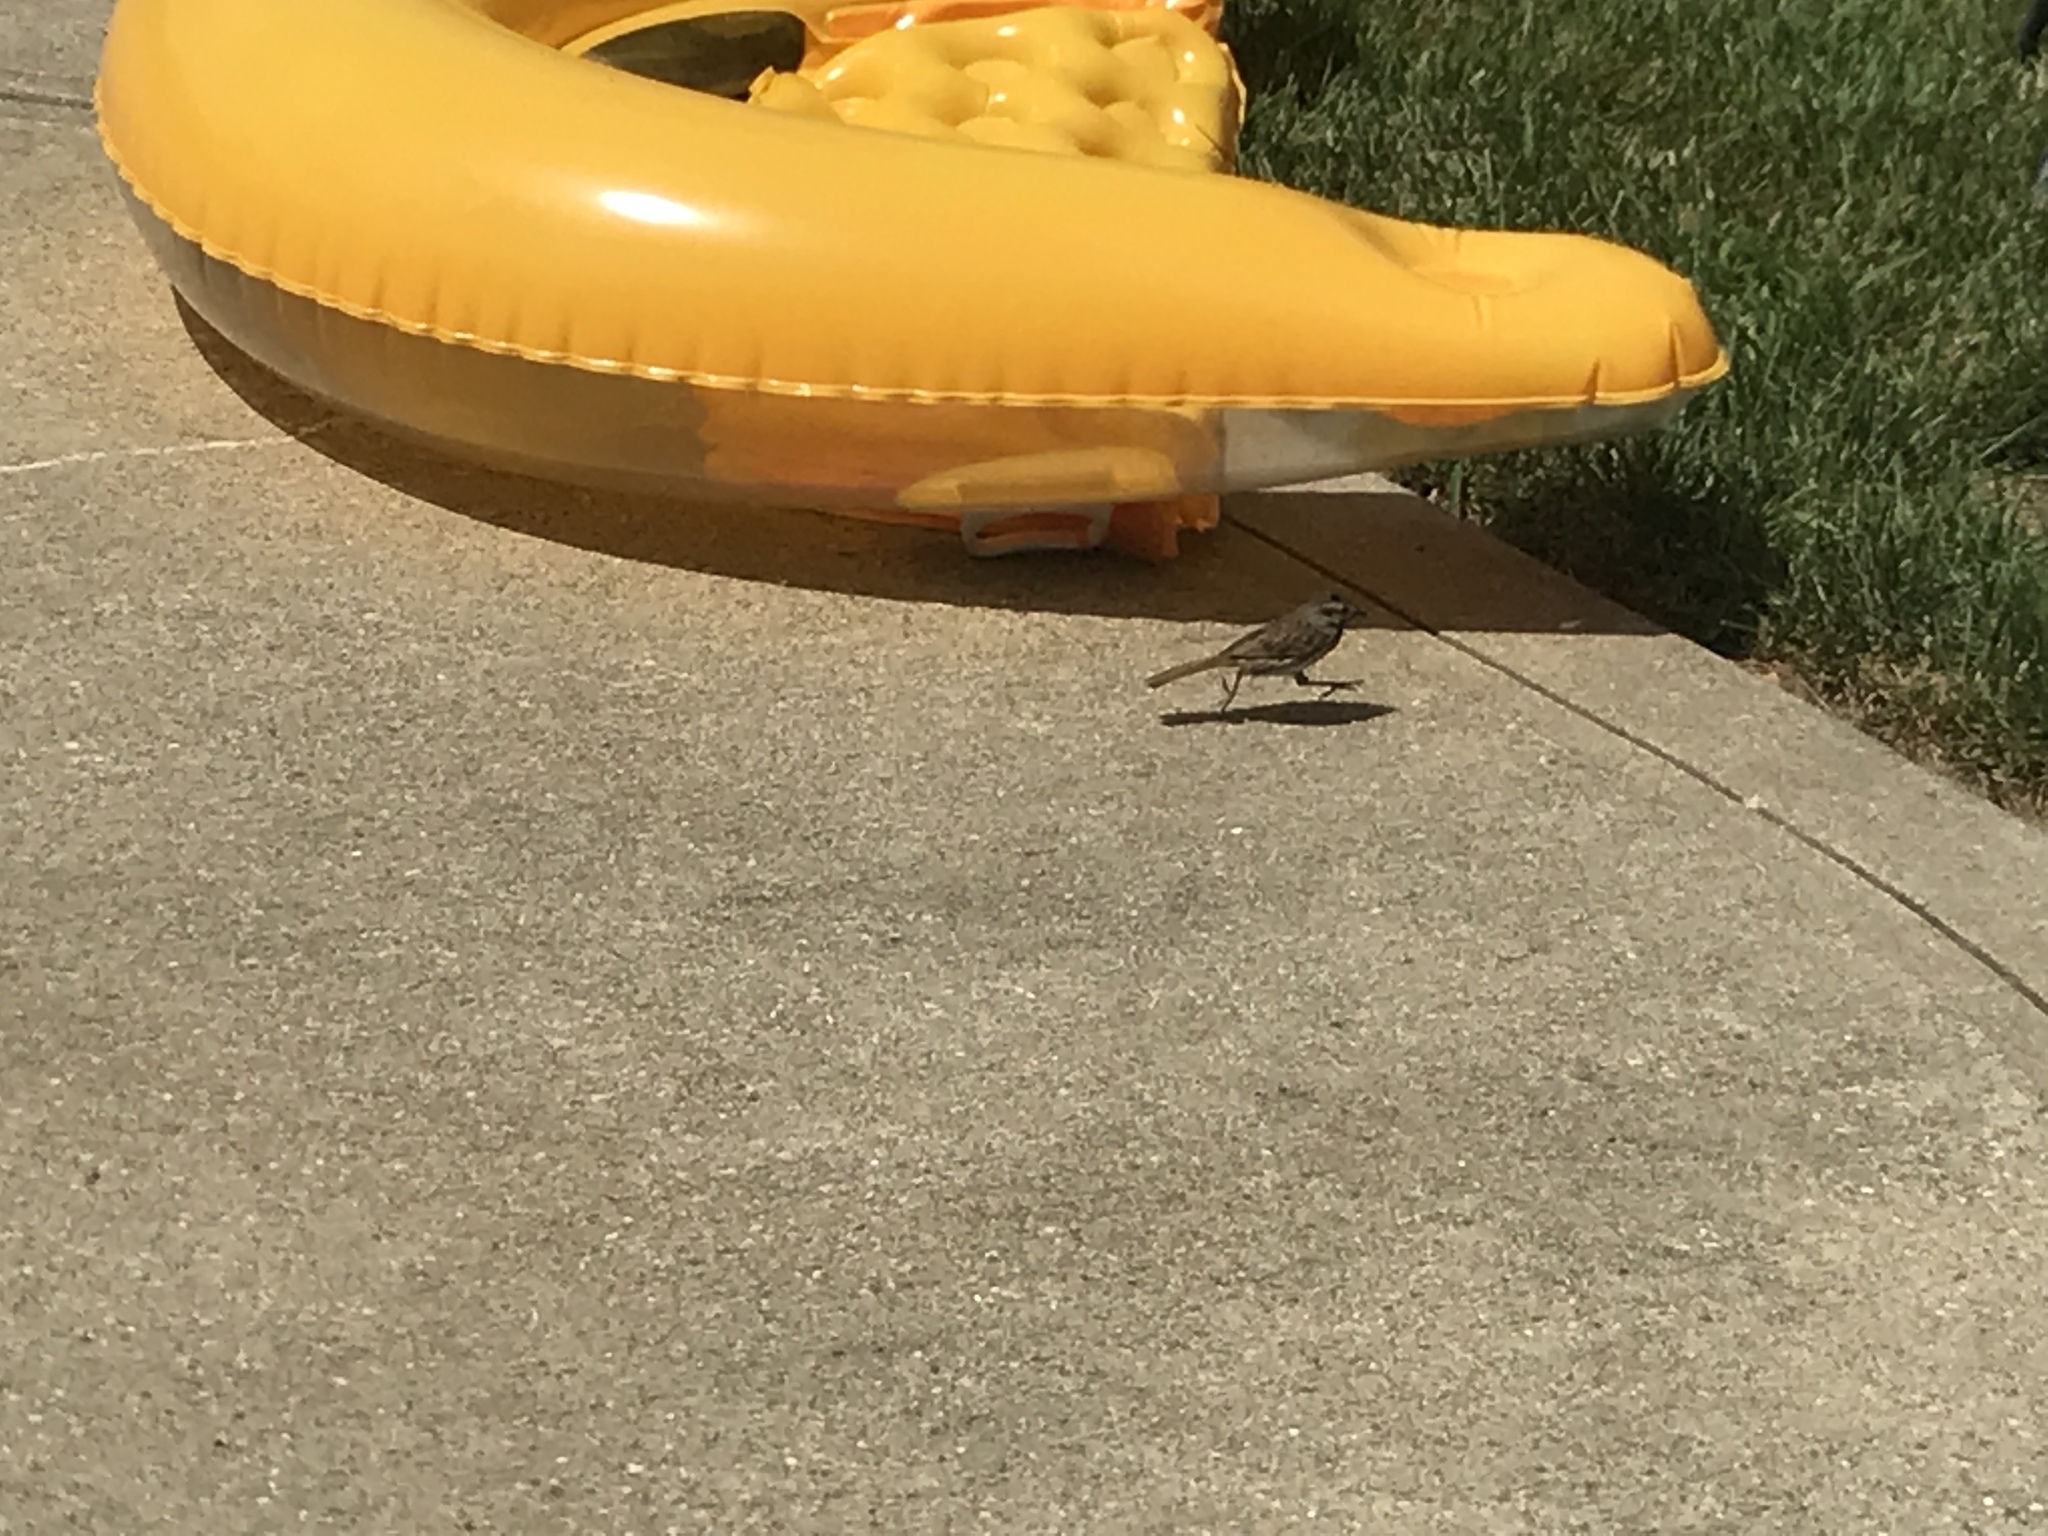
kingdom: Animalia
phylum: Chordata
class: Aves
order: Passeriformes
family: Passerellidae
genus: Melospiza
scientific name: Melospiza melodia
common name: Song sparrow
